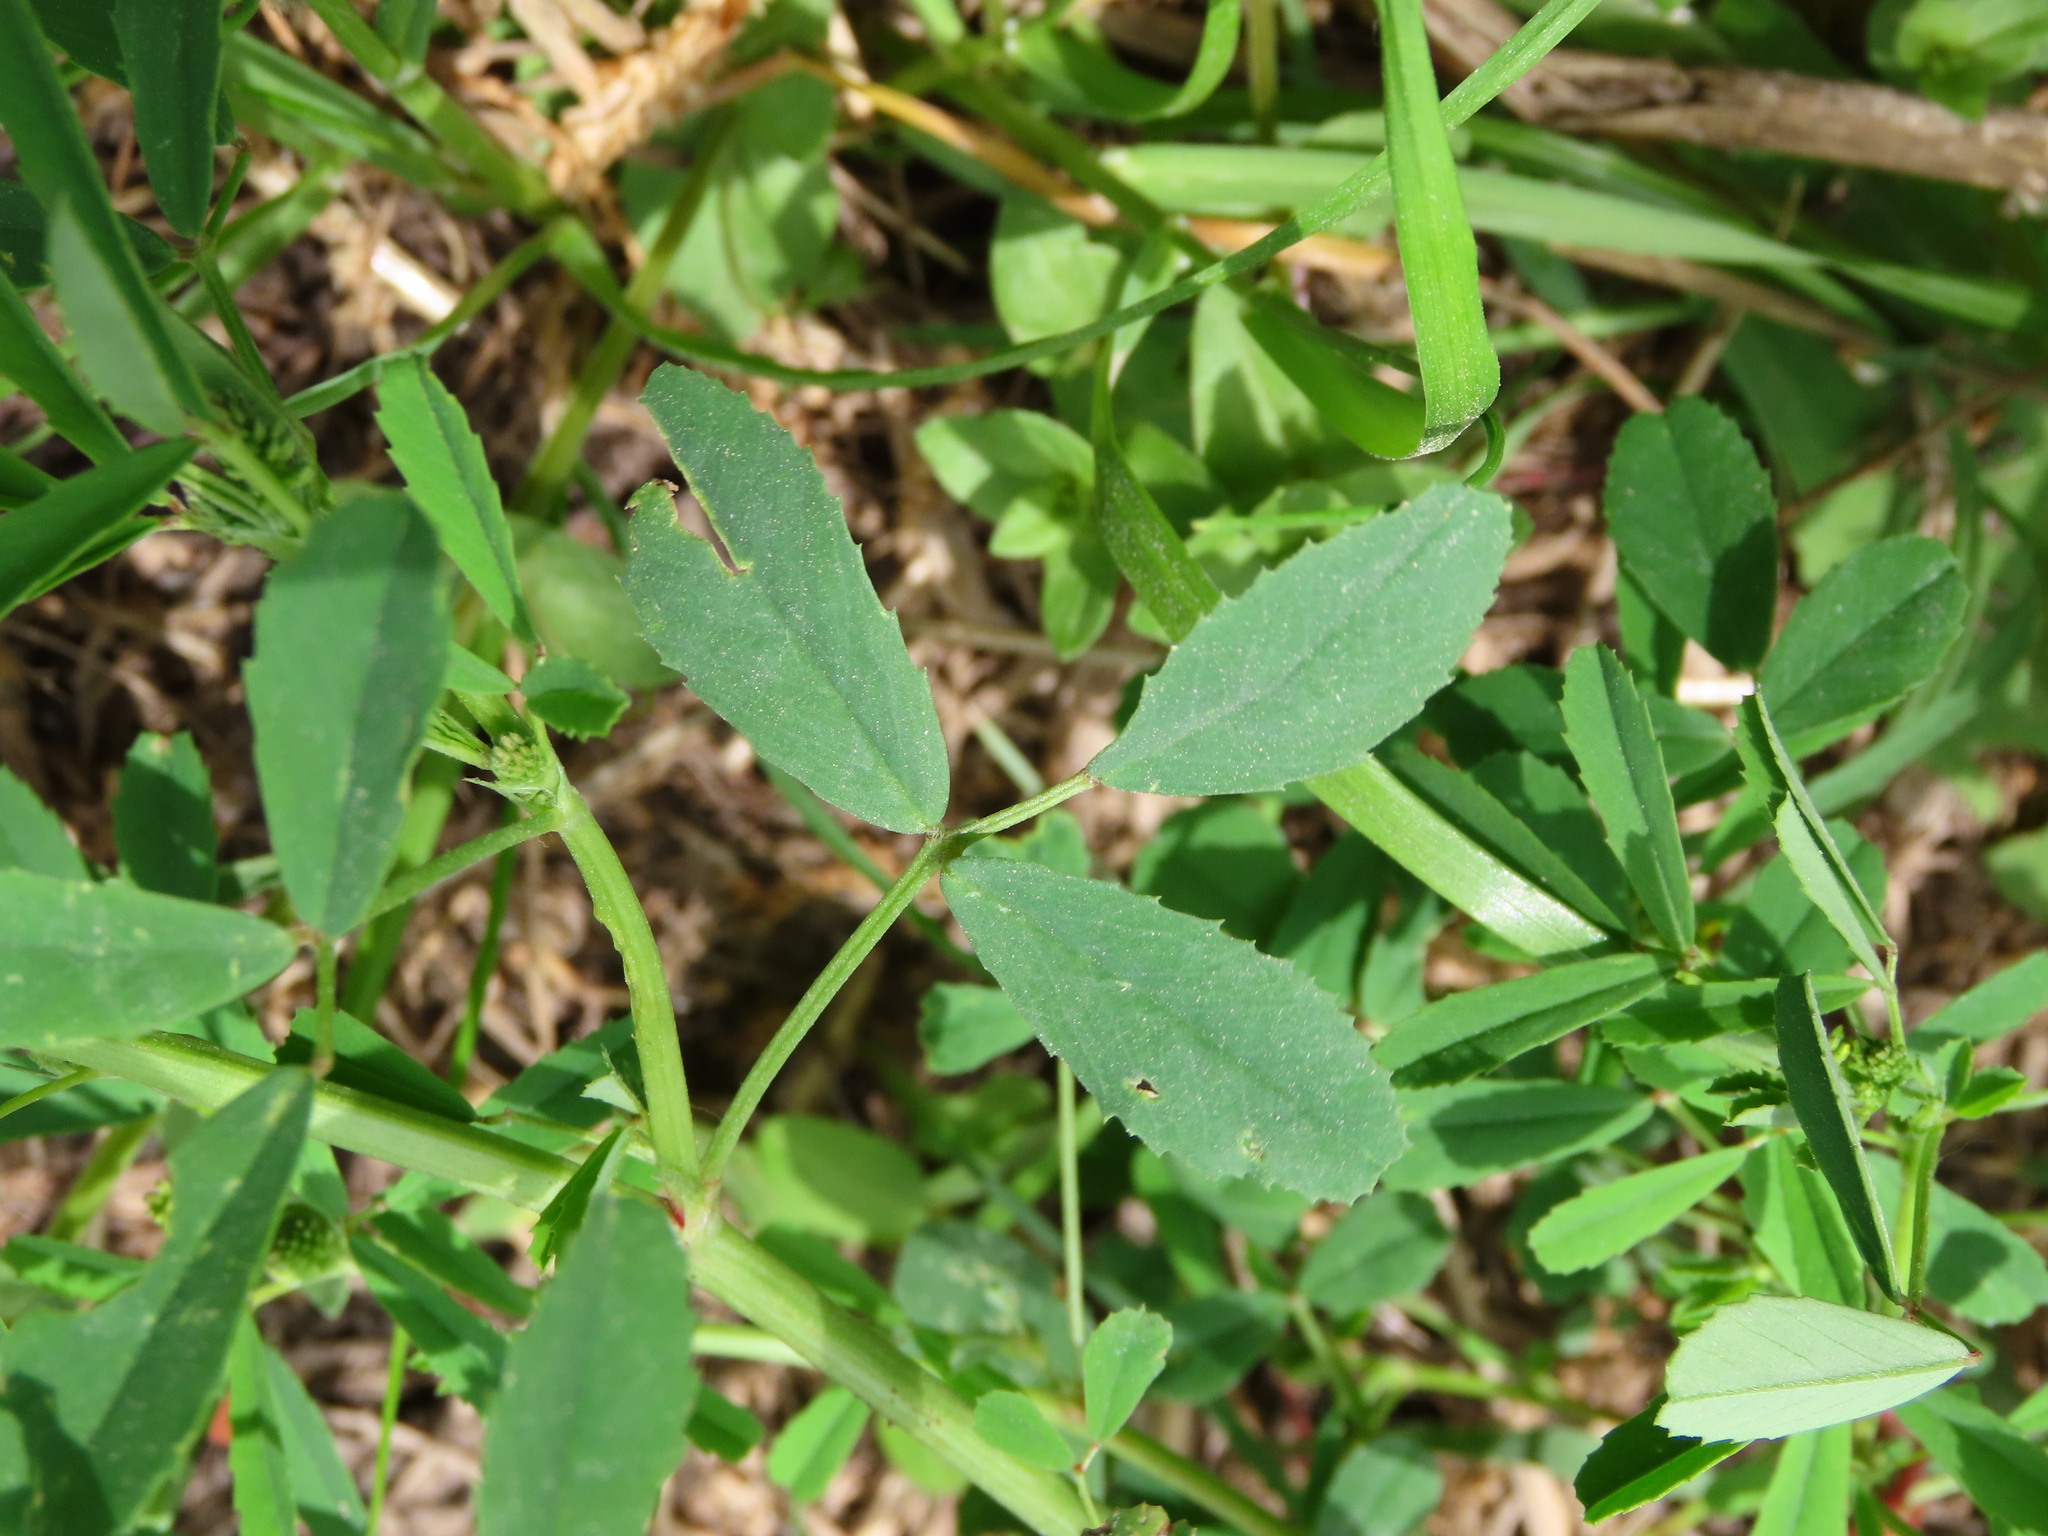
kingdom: Plantae
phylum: Tracheophyta
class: Magnoliopsida
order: Fabales
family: Fabaceae
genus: Melilotus
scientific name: Melilotus indicus
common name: Small melilot
